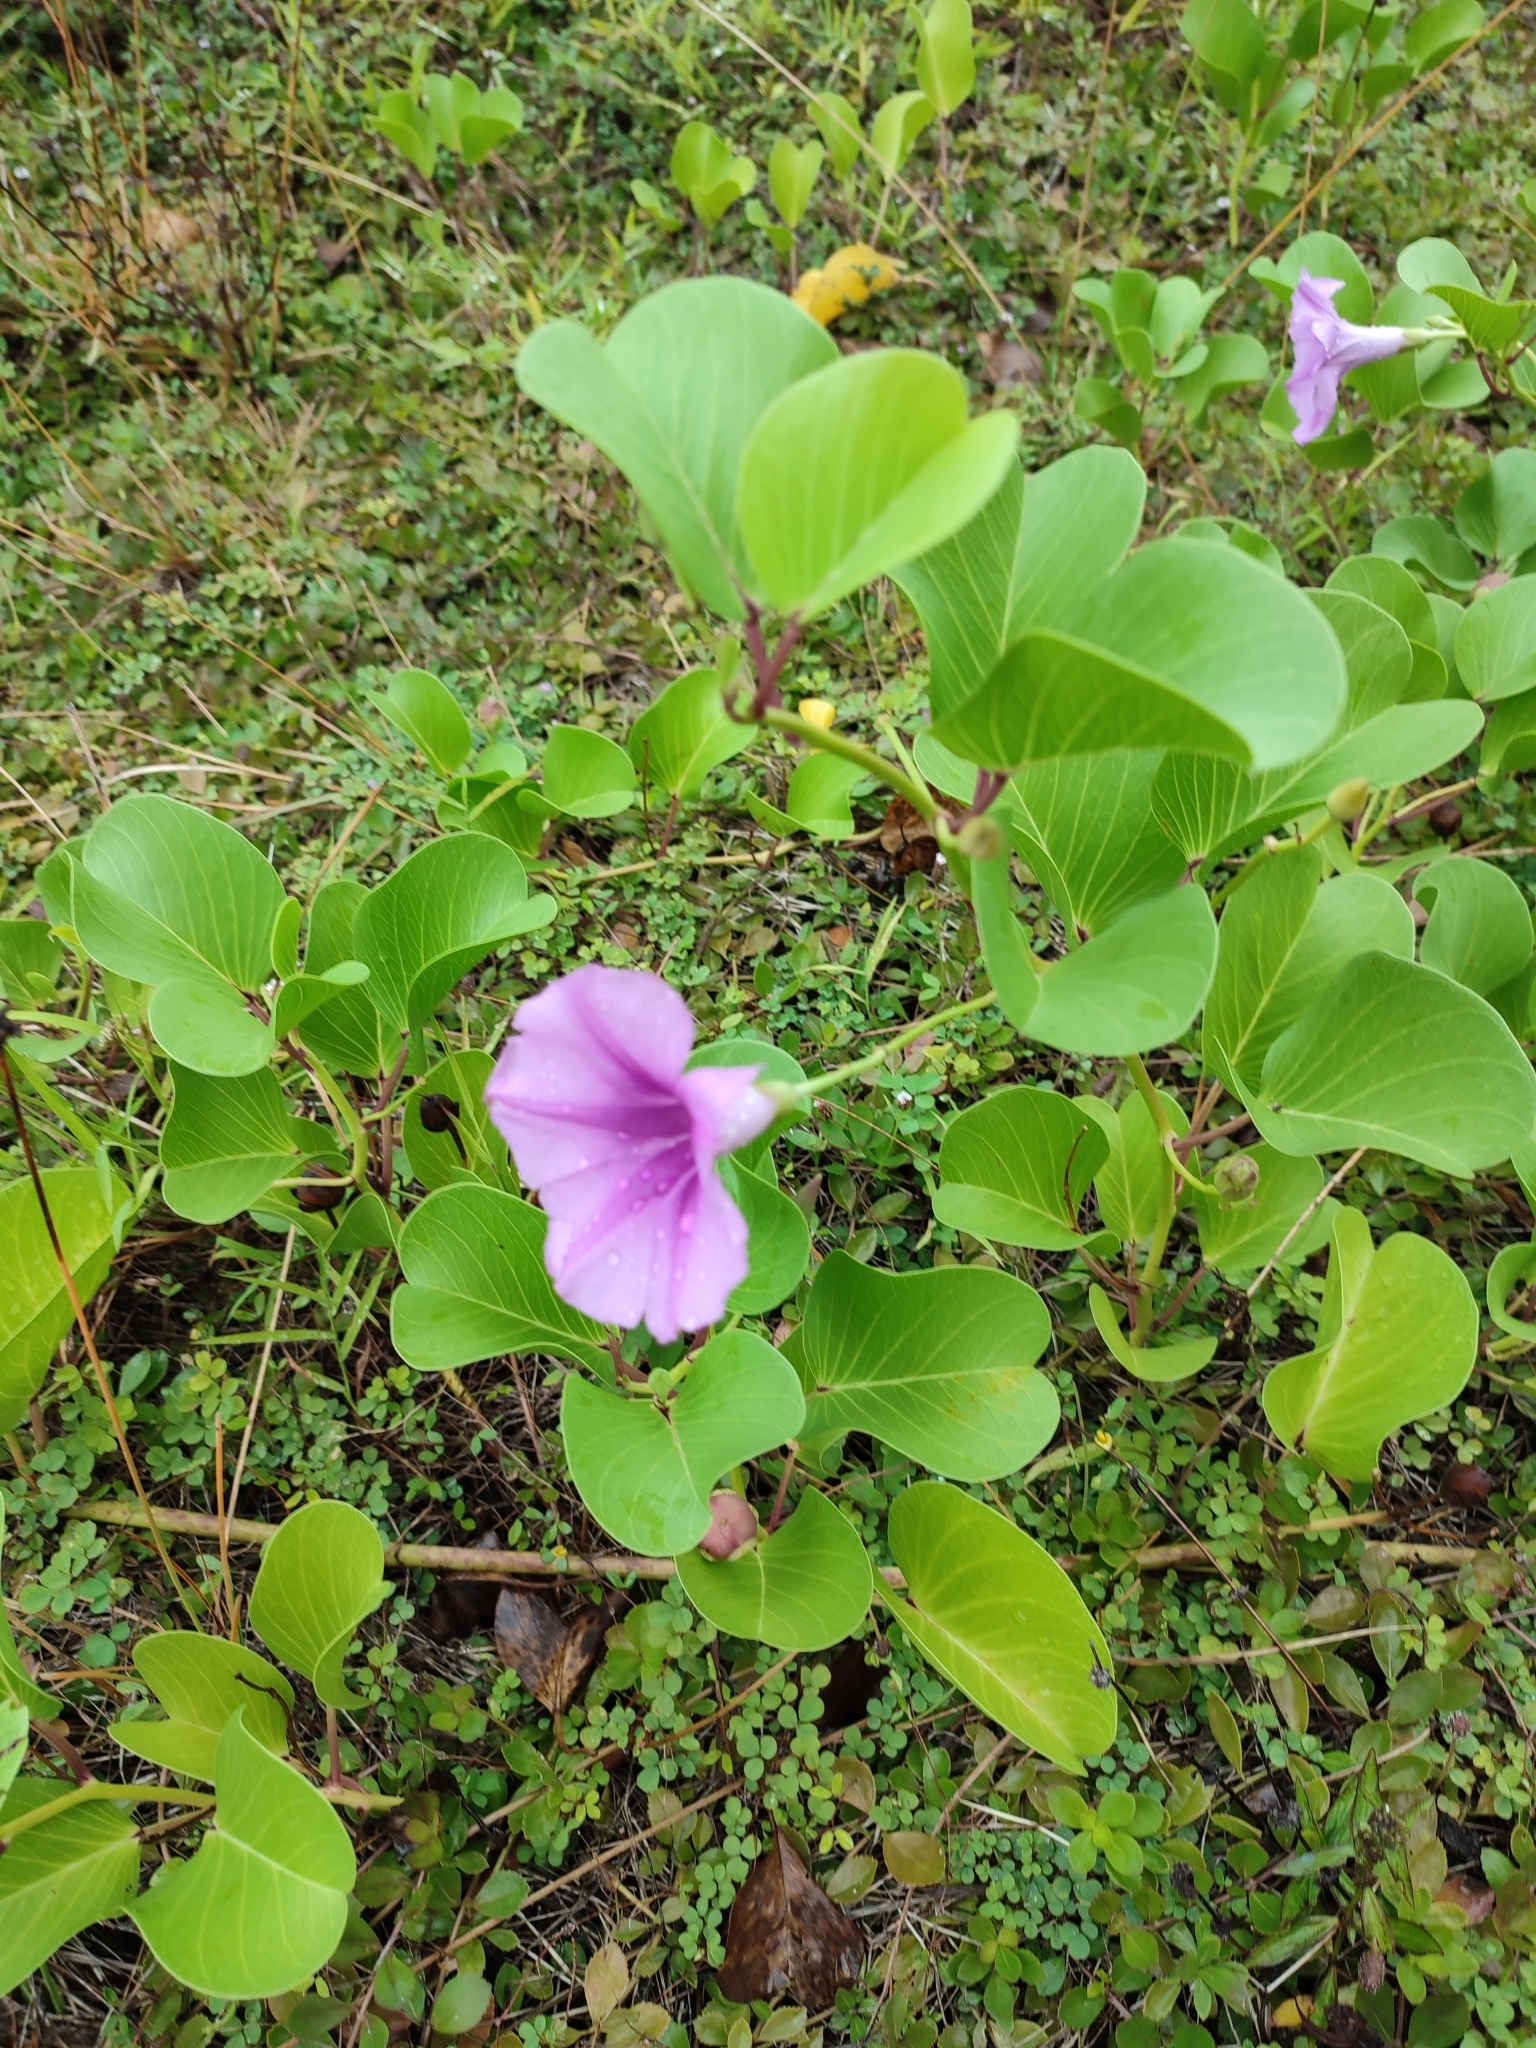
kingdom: Plantae
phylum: Tracheophyta
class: Magnoliopsida
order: Solanales
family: Convolvulaceae
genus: Ipomoea
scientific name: Ipomoea pes-caprae
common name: Beach morning glory
